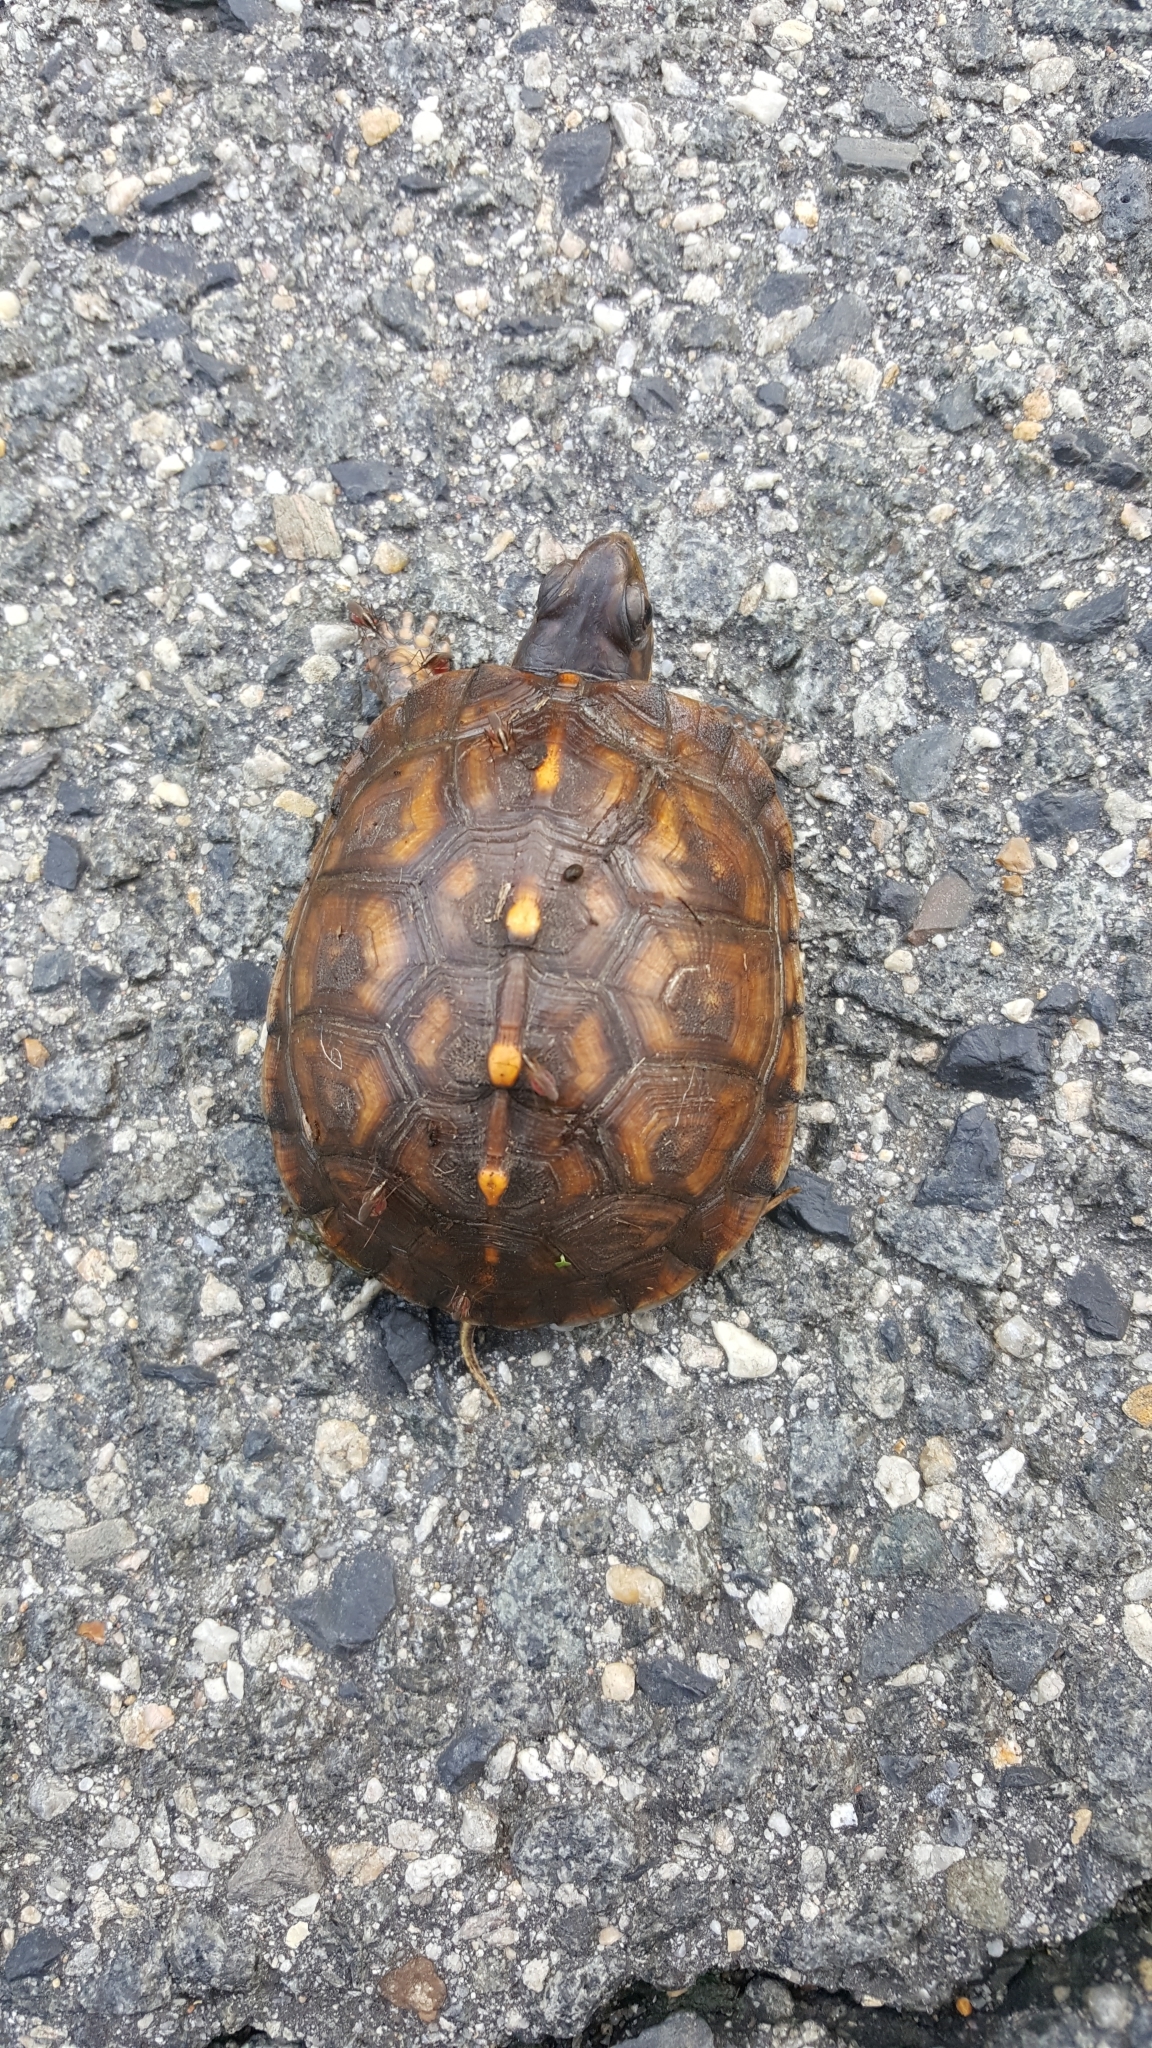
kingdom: Animalia
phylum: Chordata
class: Testudines
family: Emydidae
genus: Terrapene
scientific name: Terrapene carolina
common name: Common box turtle
